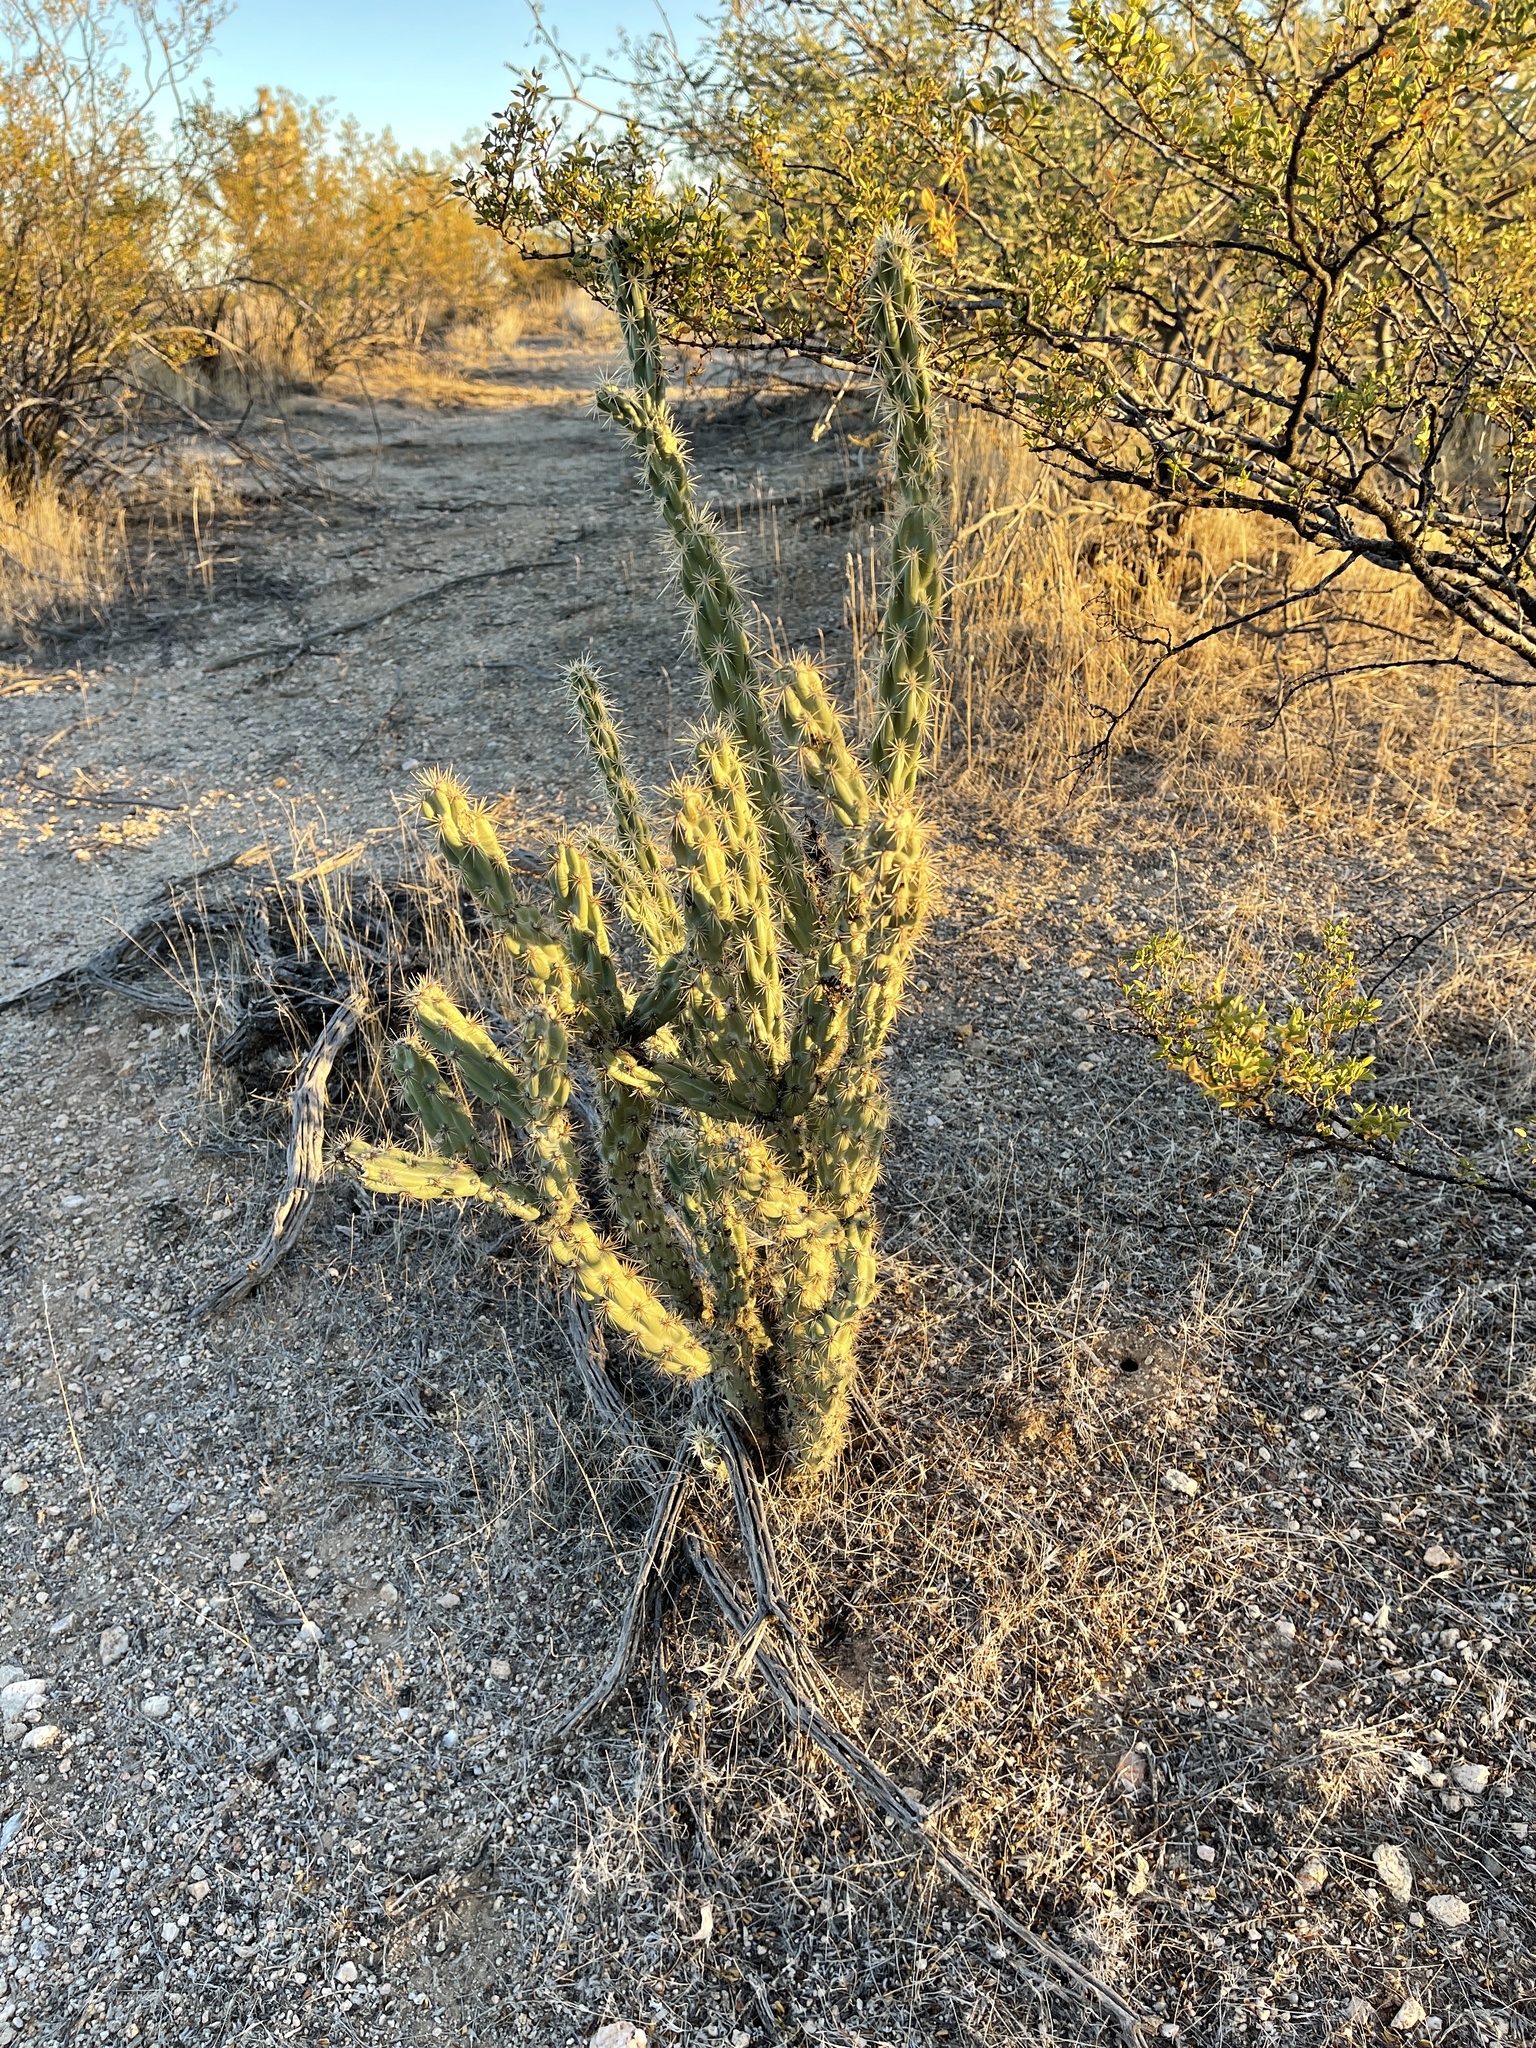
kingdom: Plantae
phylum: Tracheophyta
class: Magnoliopsida
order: Caryophyllales
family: Cactaceae
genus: Cylindropuntia
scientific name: Cylindropuntia acanthocarpa
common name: Buckhorn cholla
